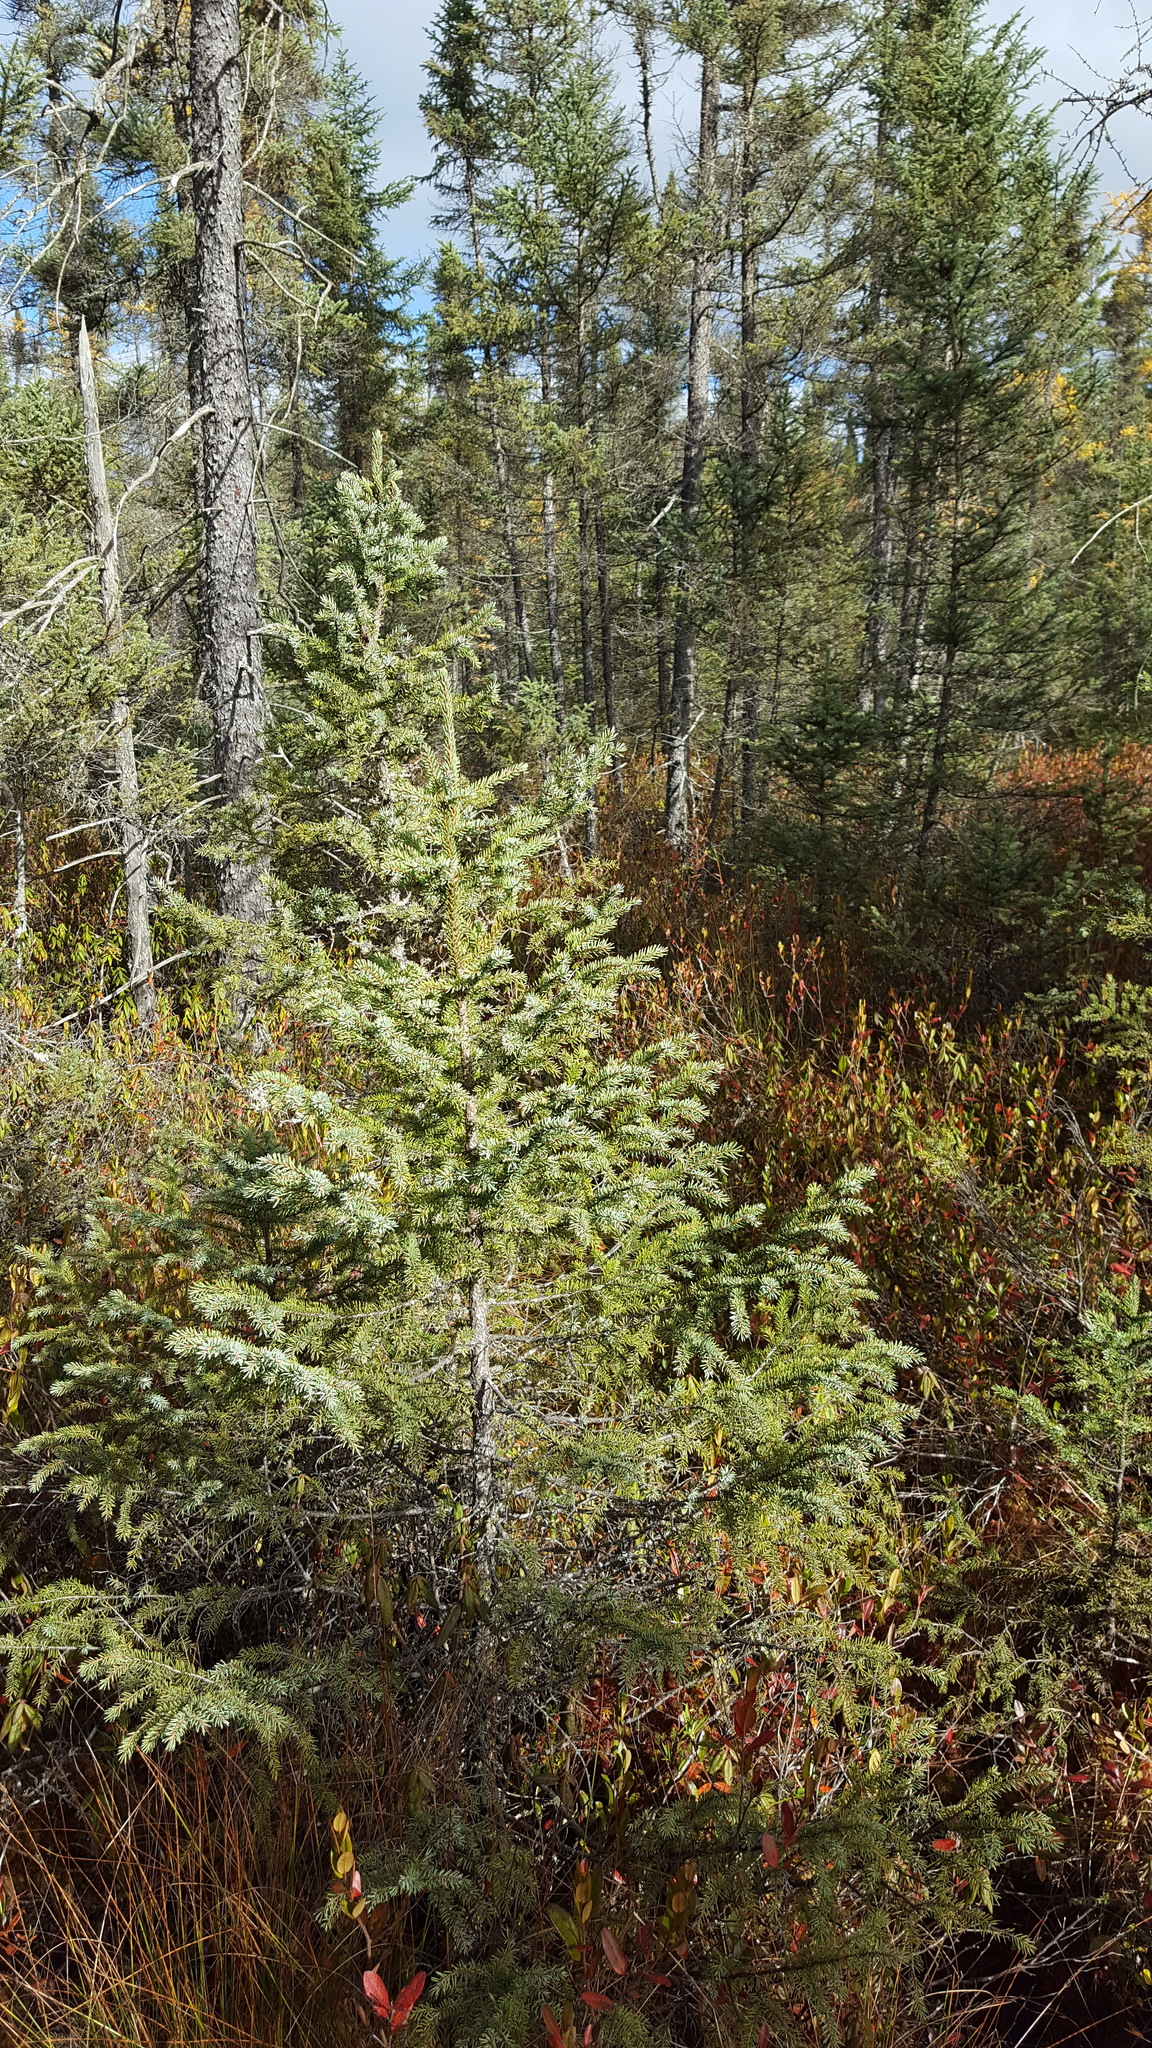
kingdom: Plantae
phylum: Tracheophyta
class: Pinopsida
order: Pinales
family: Pinaceae
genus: Picea
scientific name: Picea mariana
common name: Black spruce
